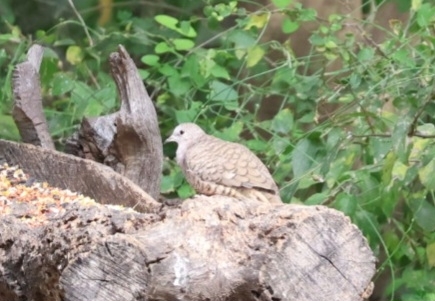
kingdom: Animalia
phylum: Chordata
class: Aves
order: Columbiformes
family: Columbidae
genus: Columbina
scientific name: Columbina inca
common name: Inca dove
